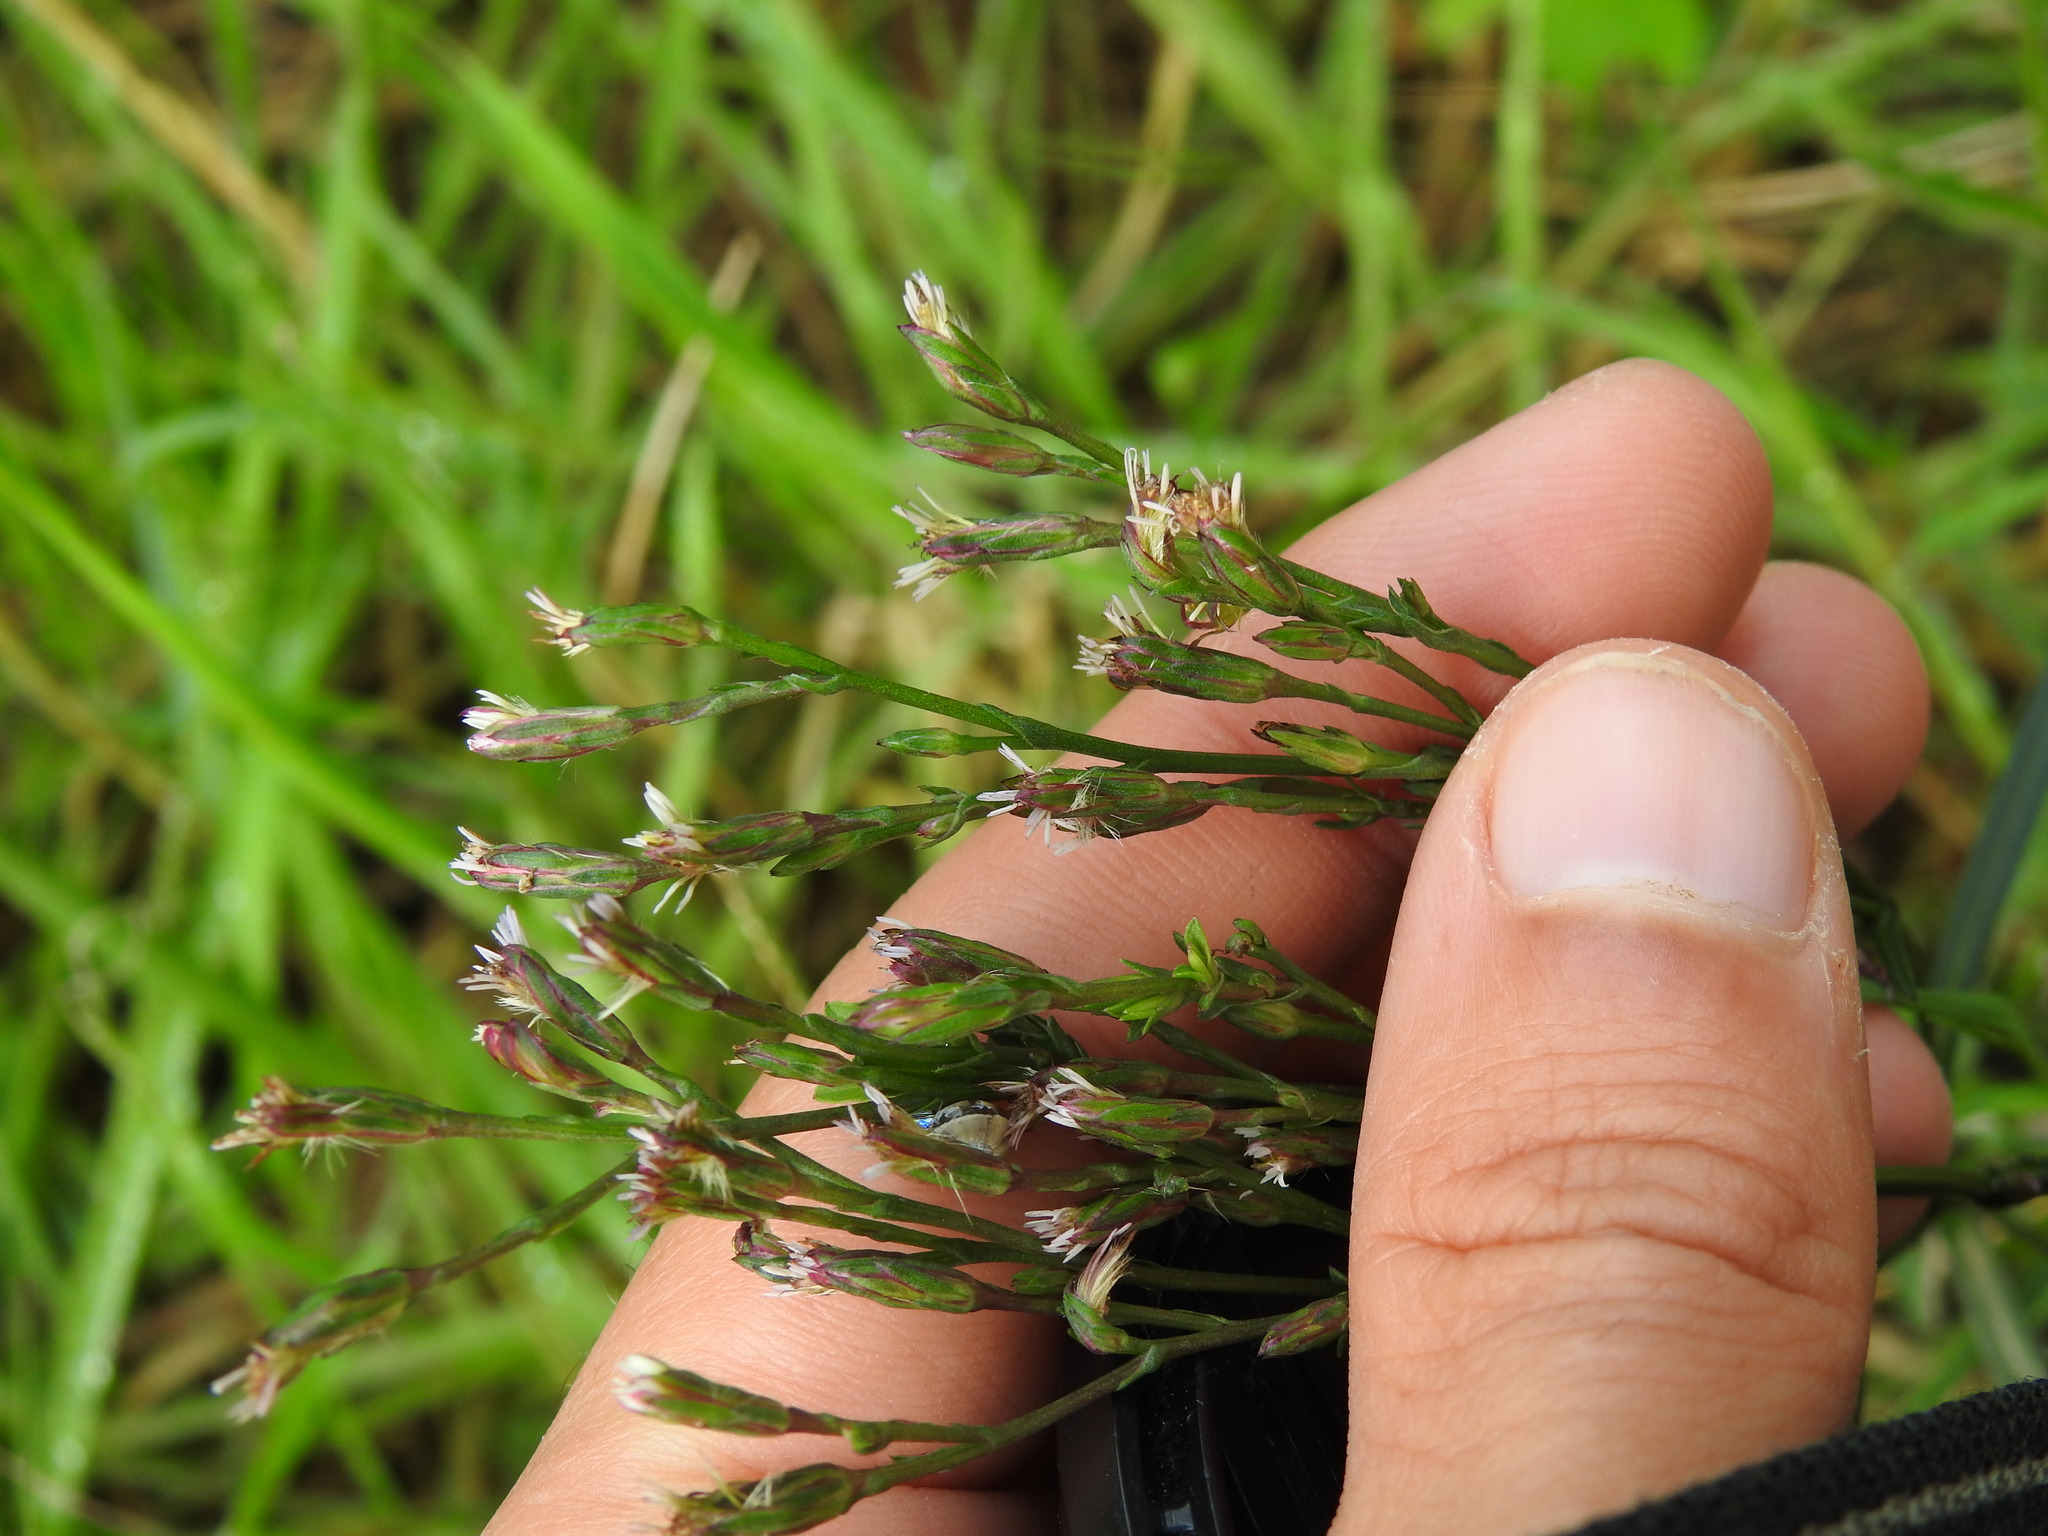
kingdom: Plantae
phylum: Tracheophyta
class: Magnoliopsida
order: Asterales
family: Asteraceae
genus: Symphyotrichum
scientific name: Symphyotrichum squamatum
